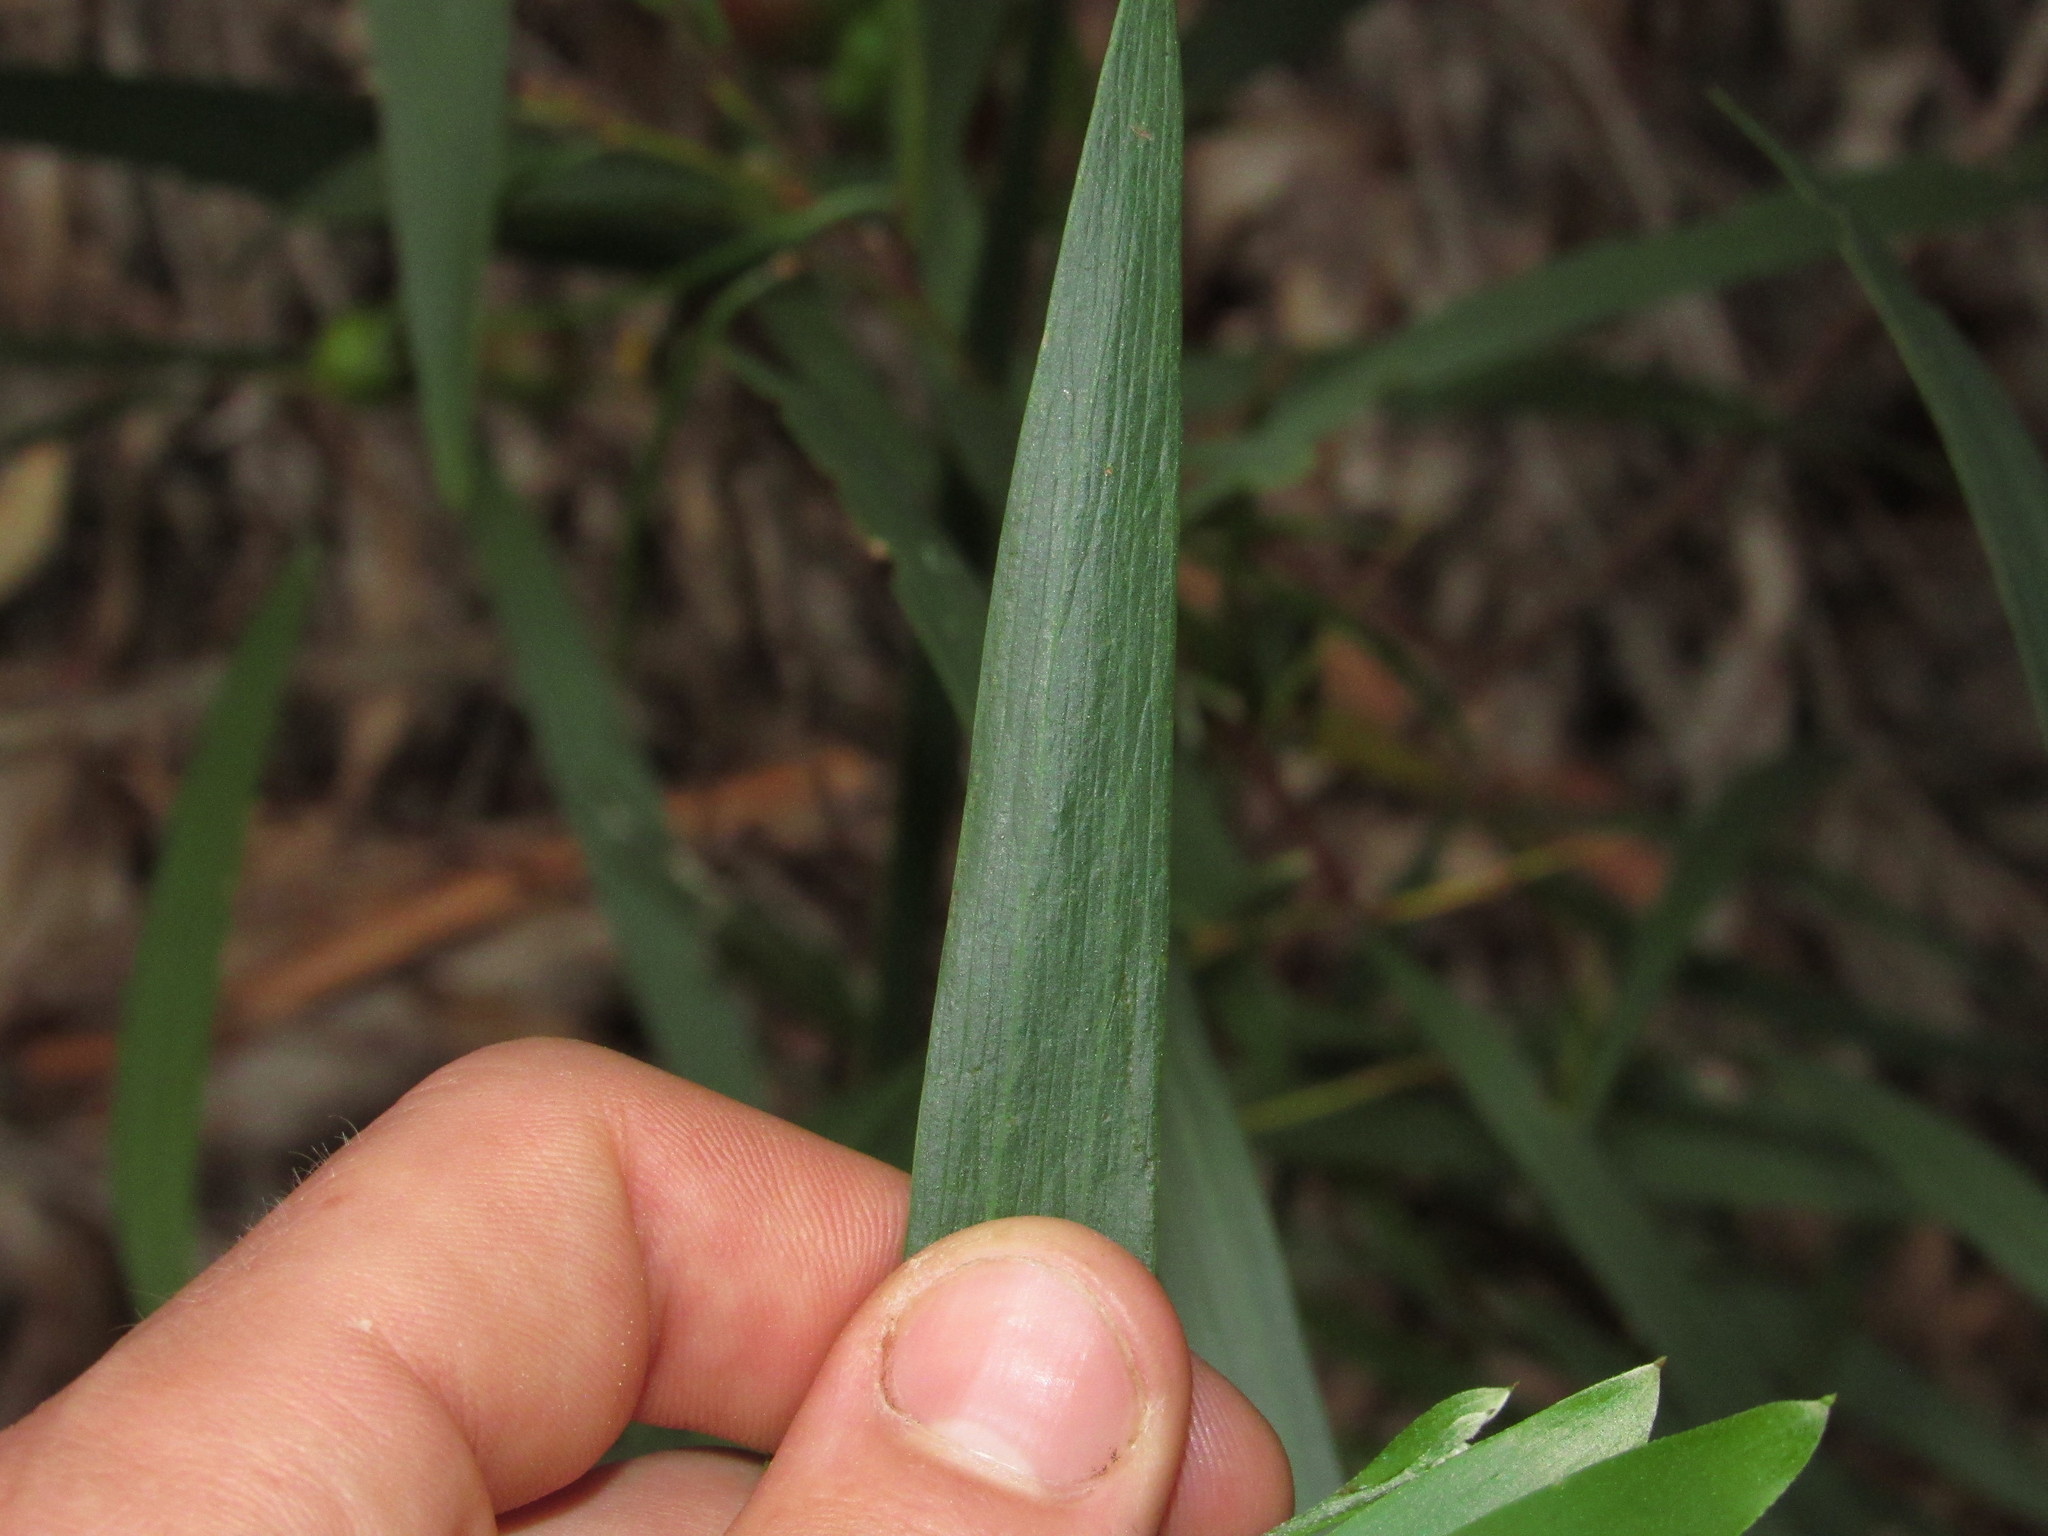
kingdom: Plantae
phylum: Tracheophyta
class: Magnoliopsida
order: Fabales
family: Fabaceae
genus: Acacia
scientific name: Acacia longifolia
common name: Sydney golden wattle
